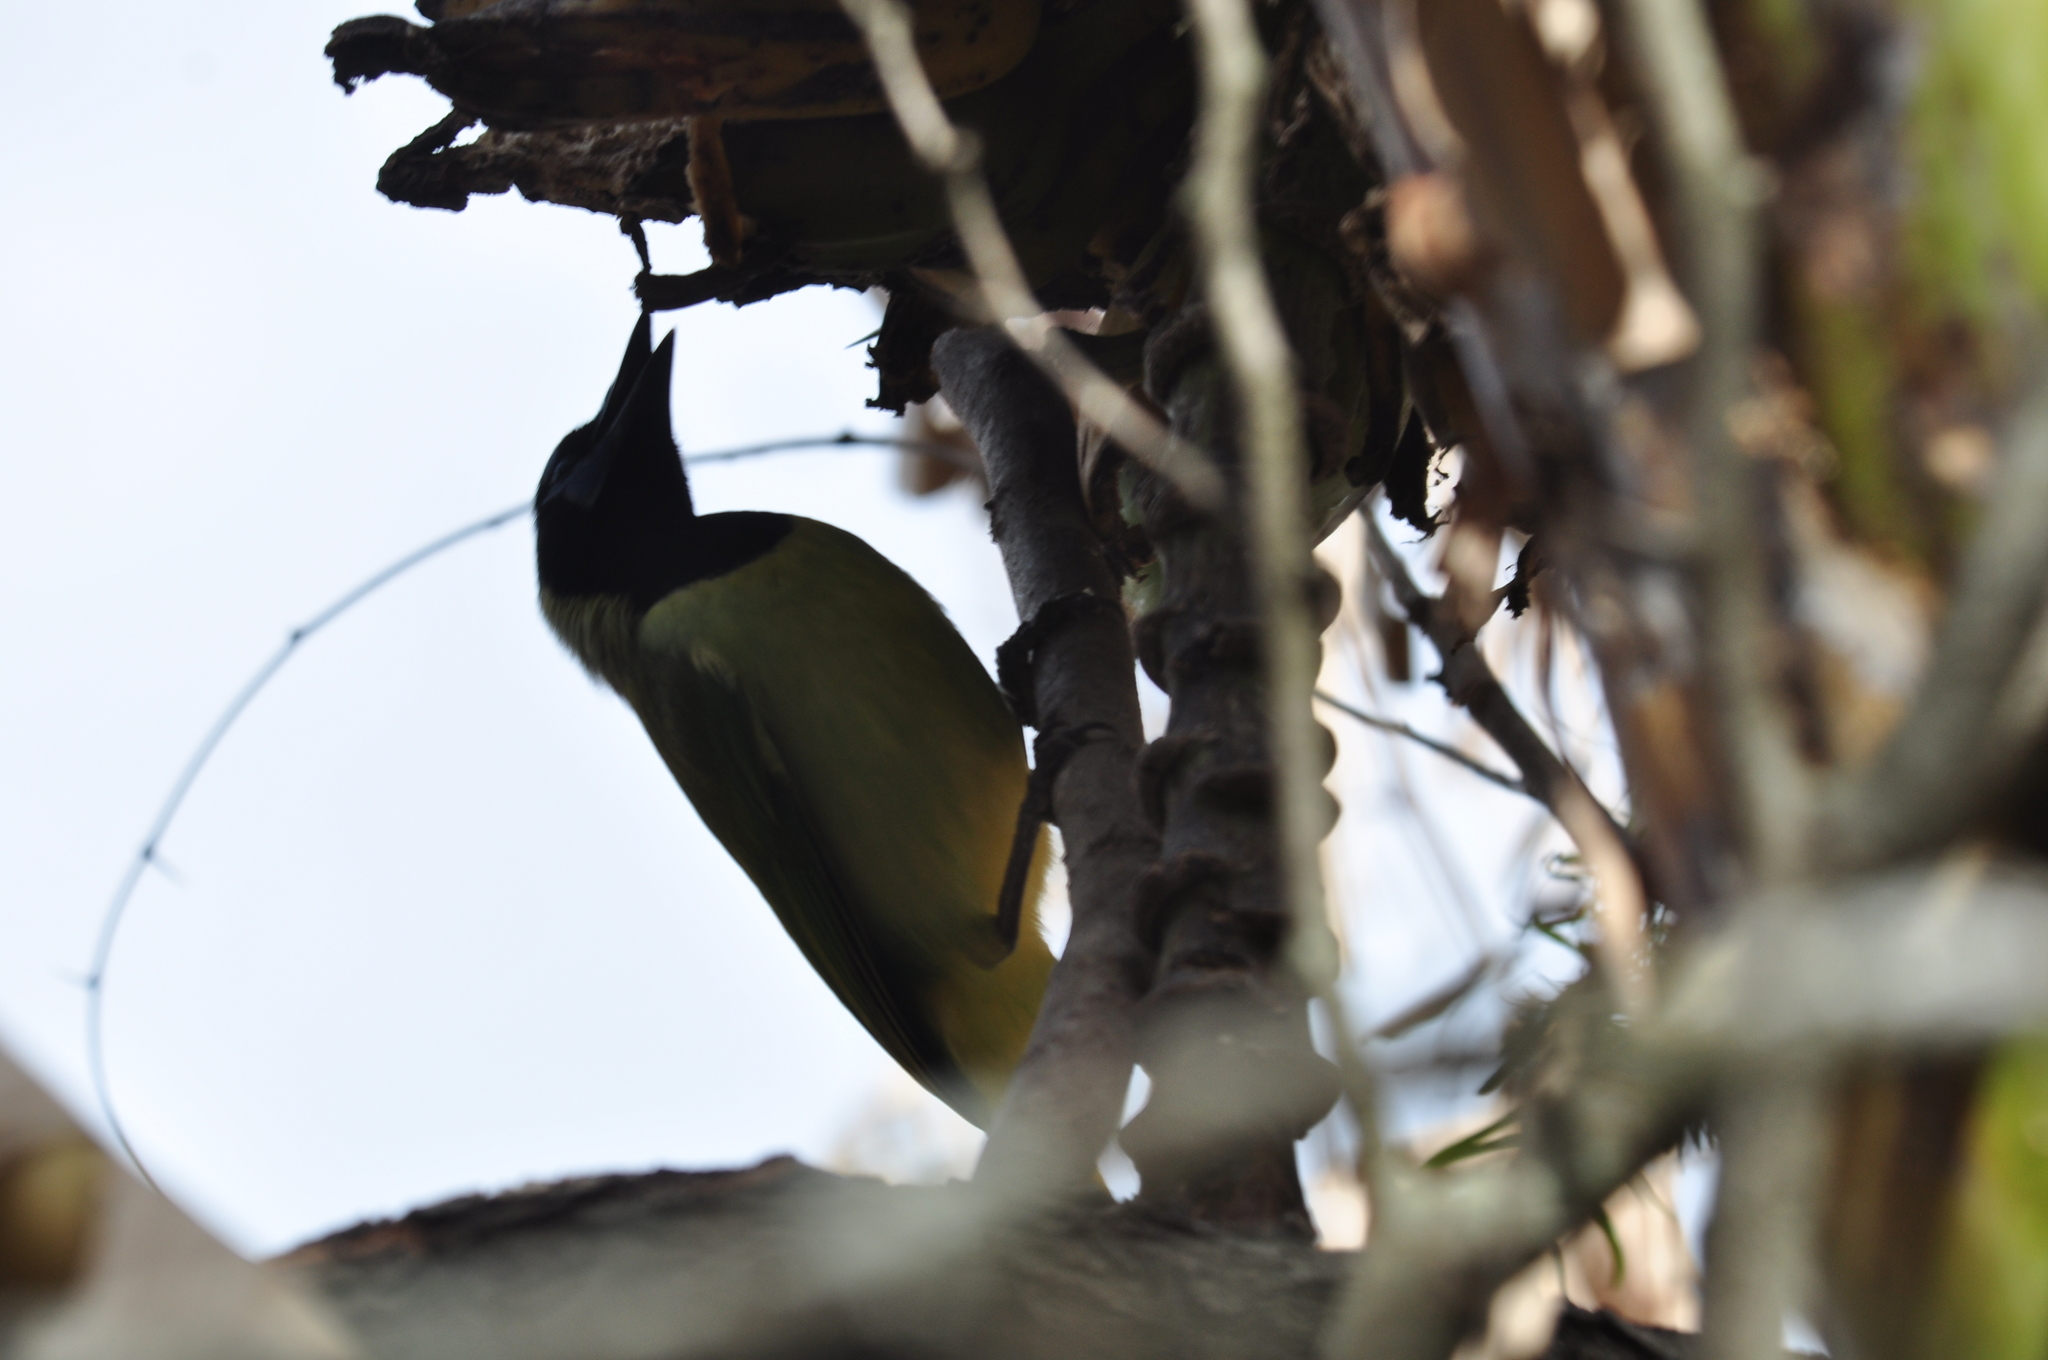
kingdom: Animalia
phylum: Chordata
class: Aves
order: Passeriformes
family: Corvidae
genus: Cyanocorax
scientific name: Cyanocorax yncas
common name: Green jay
